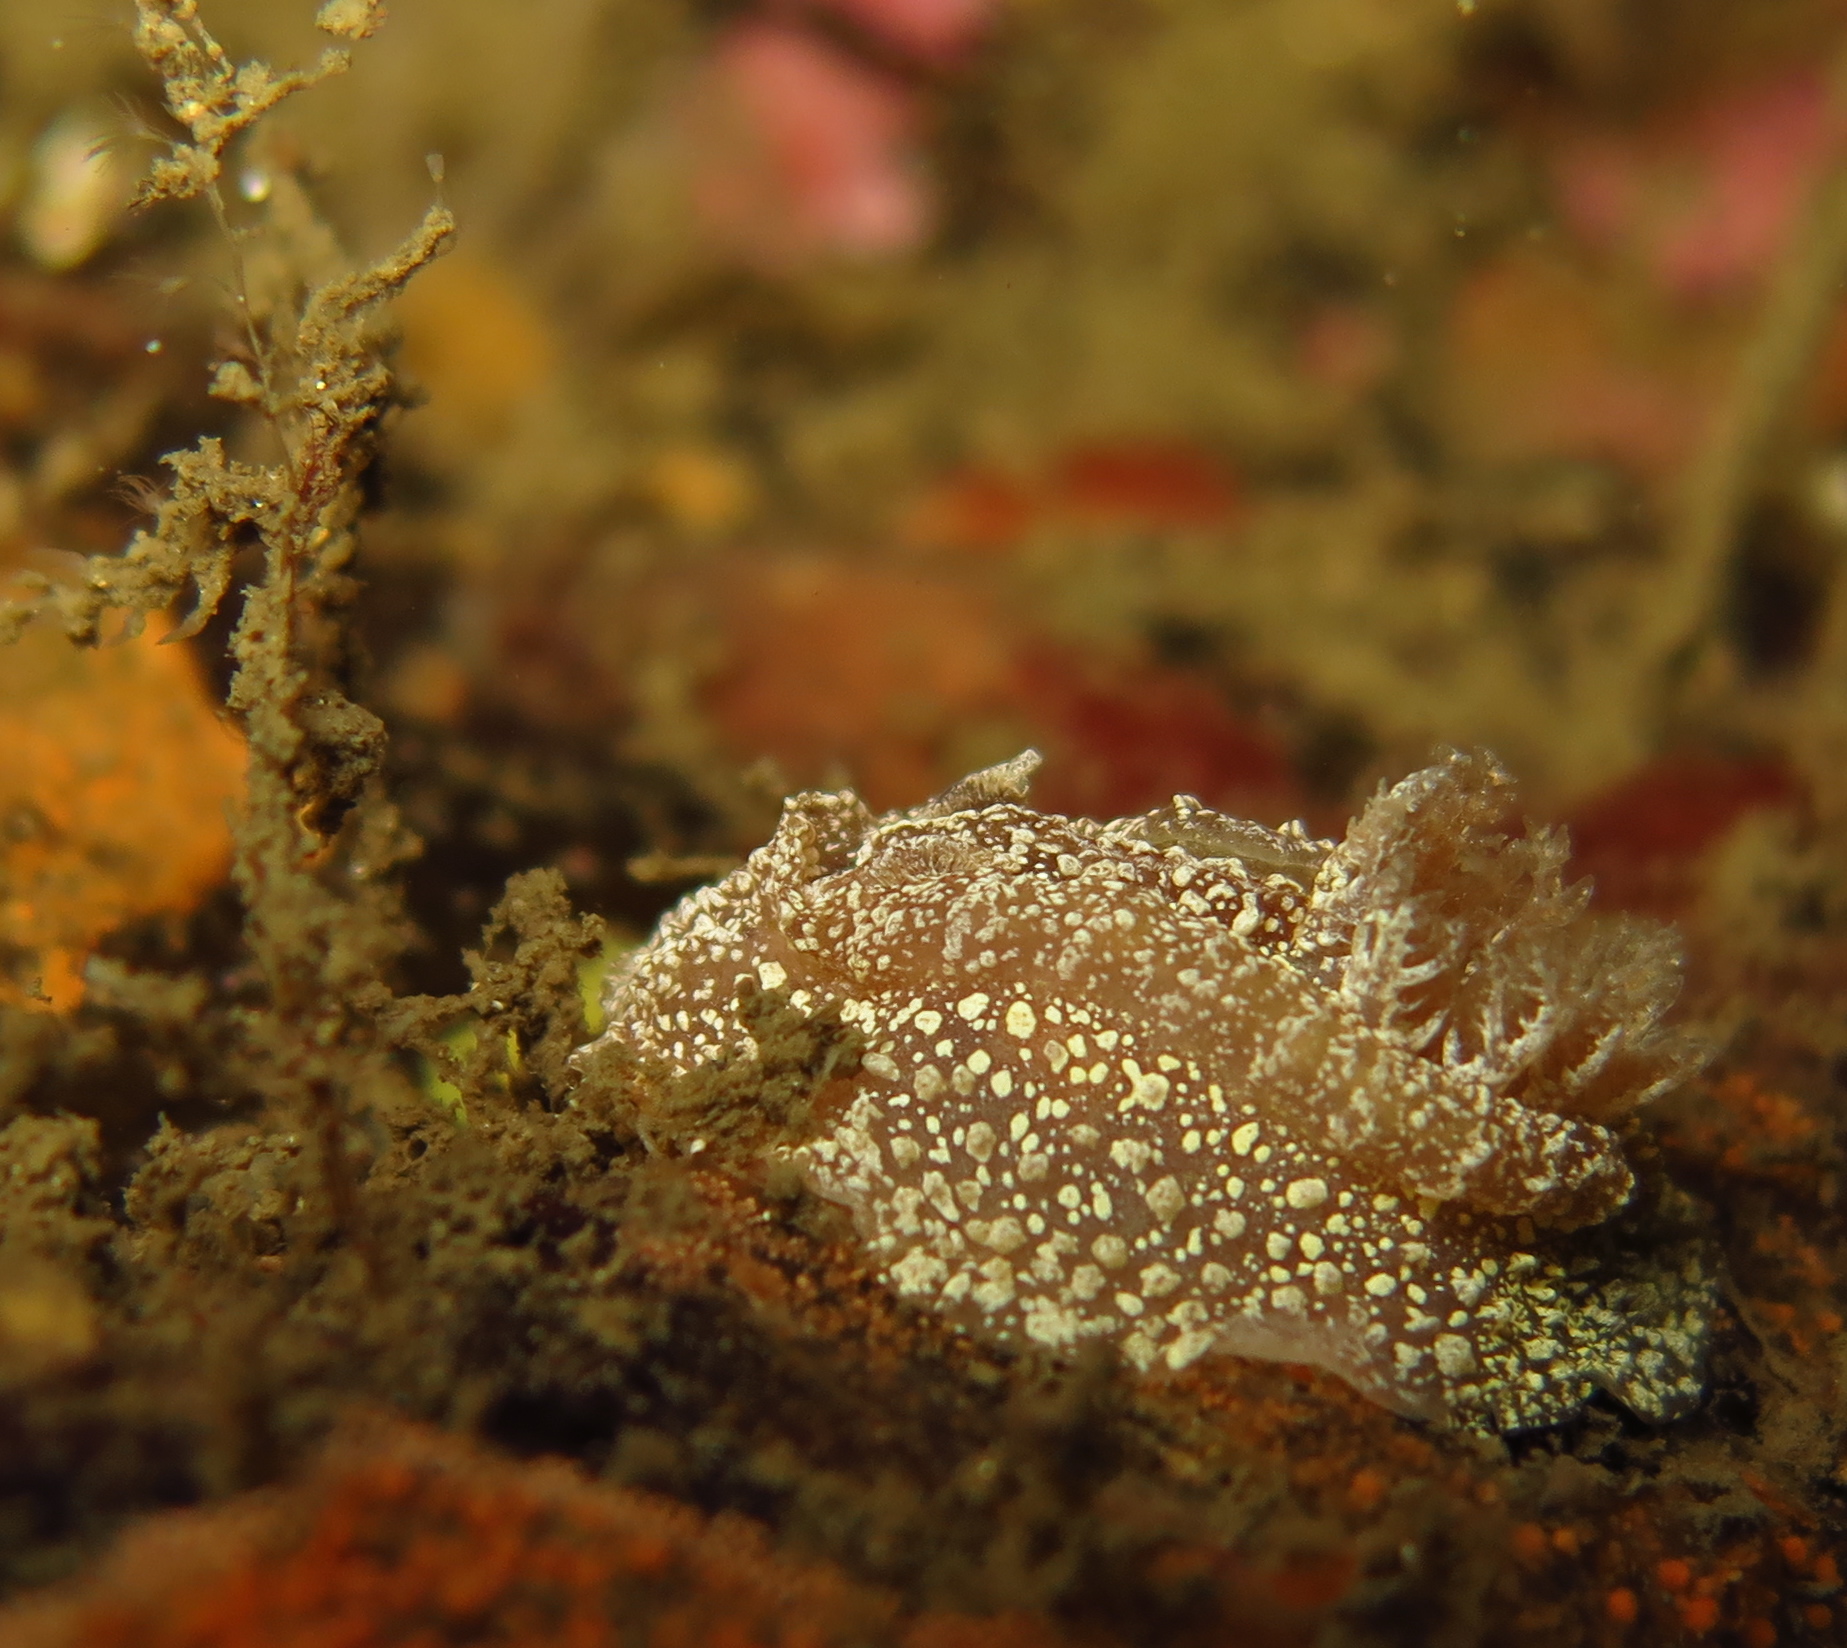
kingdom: Animalia
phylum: Mollusca
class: Gastropoda
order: Nudibranchia
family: Goniodorididae
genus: Pelagella
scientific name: Pelagella castanea
